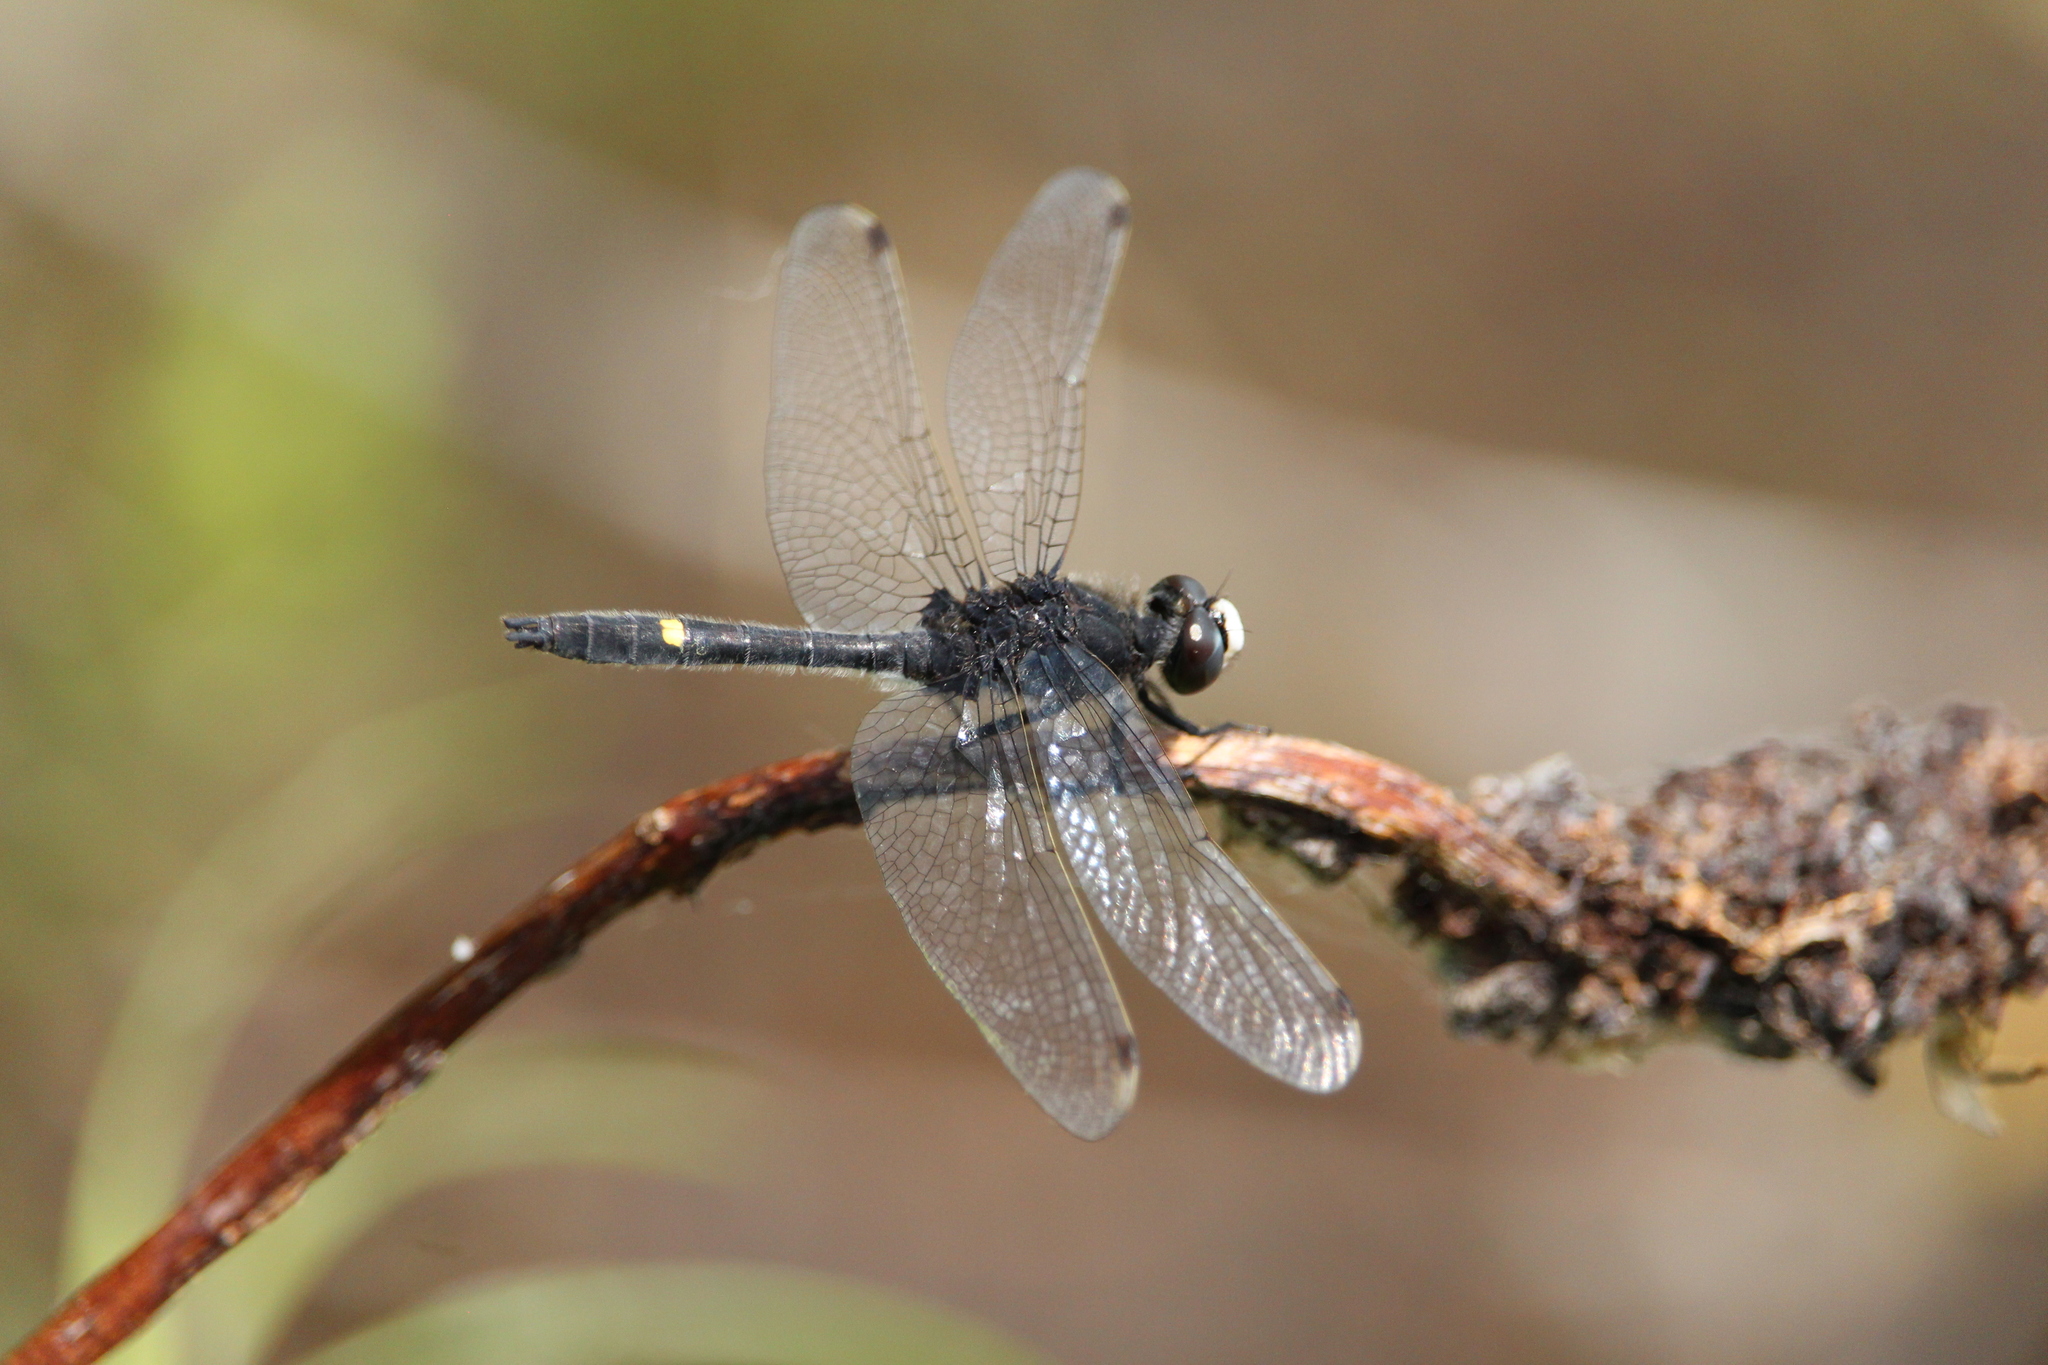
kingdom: Animalia
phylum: Arthropoda
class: Insecta
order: Odonata
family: Libellulidae
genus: Leucorrhinia
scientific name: Leucorrhinia intacta
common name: Dot-tailed whiteface
